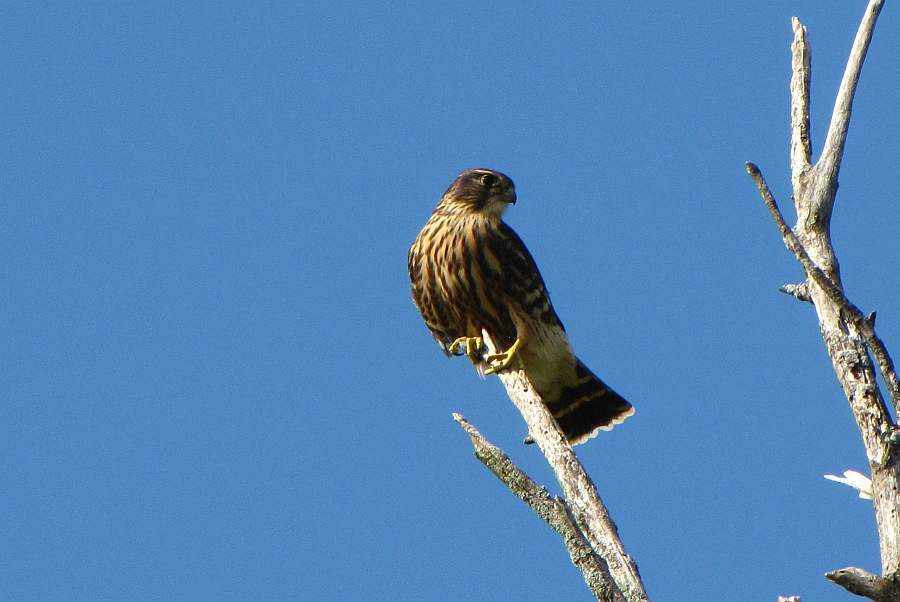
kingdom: Animalia
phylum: Chordata
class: Aves
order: Falconiformes
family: Falconidae
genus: Falco
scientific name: Falco columbarius
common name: Merlin
